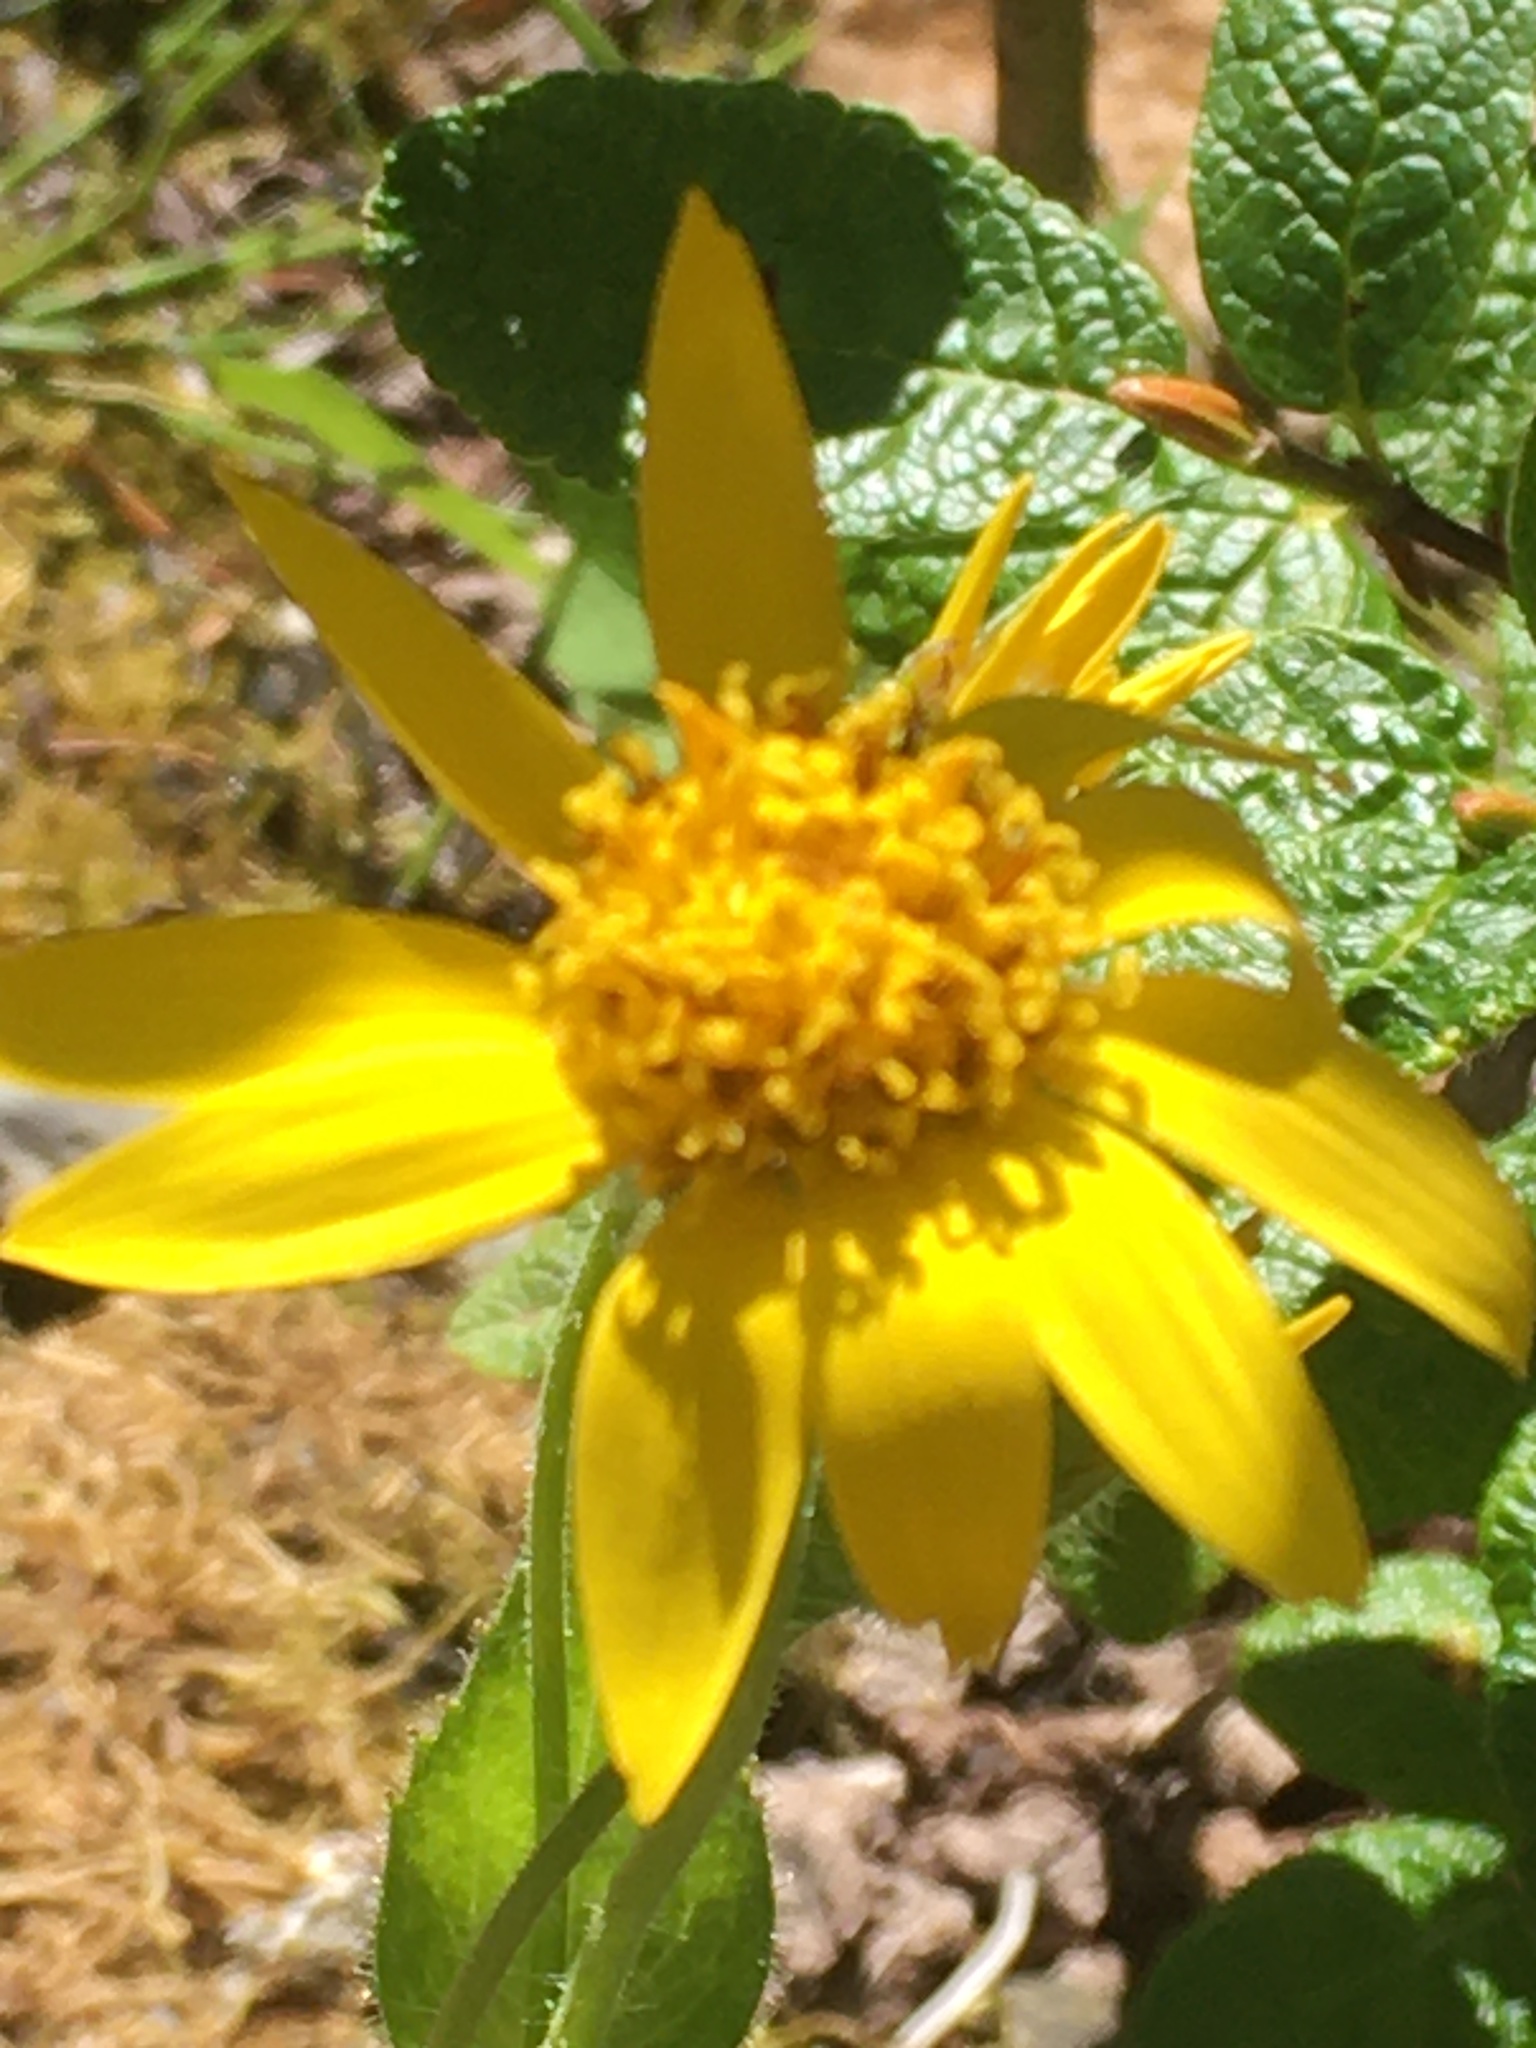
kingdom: Plantae
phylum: Tracheophyta
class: Magnoliopsida
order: Asterales
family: Asteraceae
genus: Arnica
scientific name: Arnica latifolia
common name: Arnica
